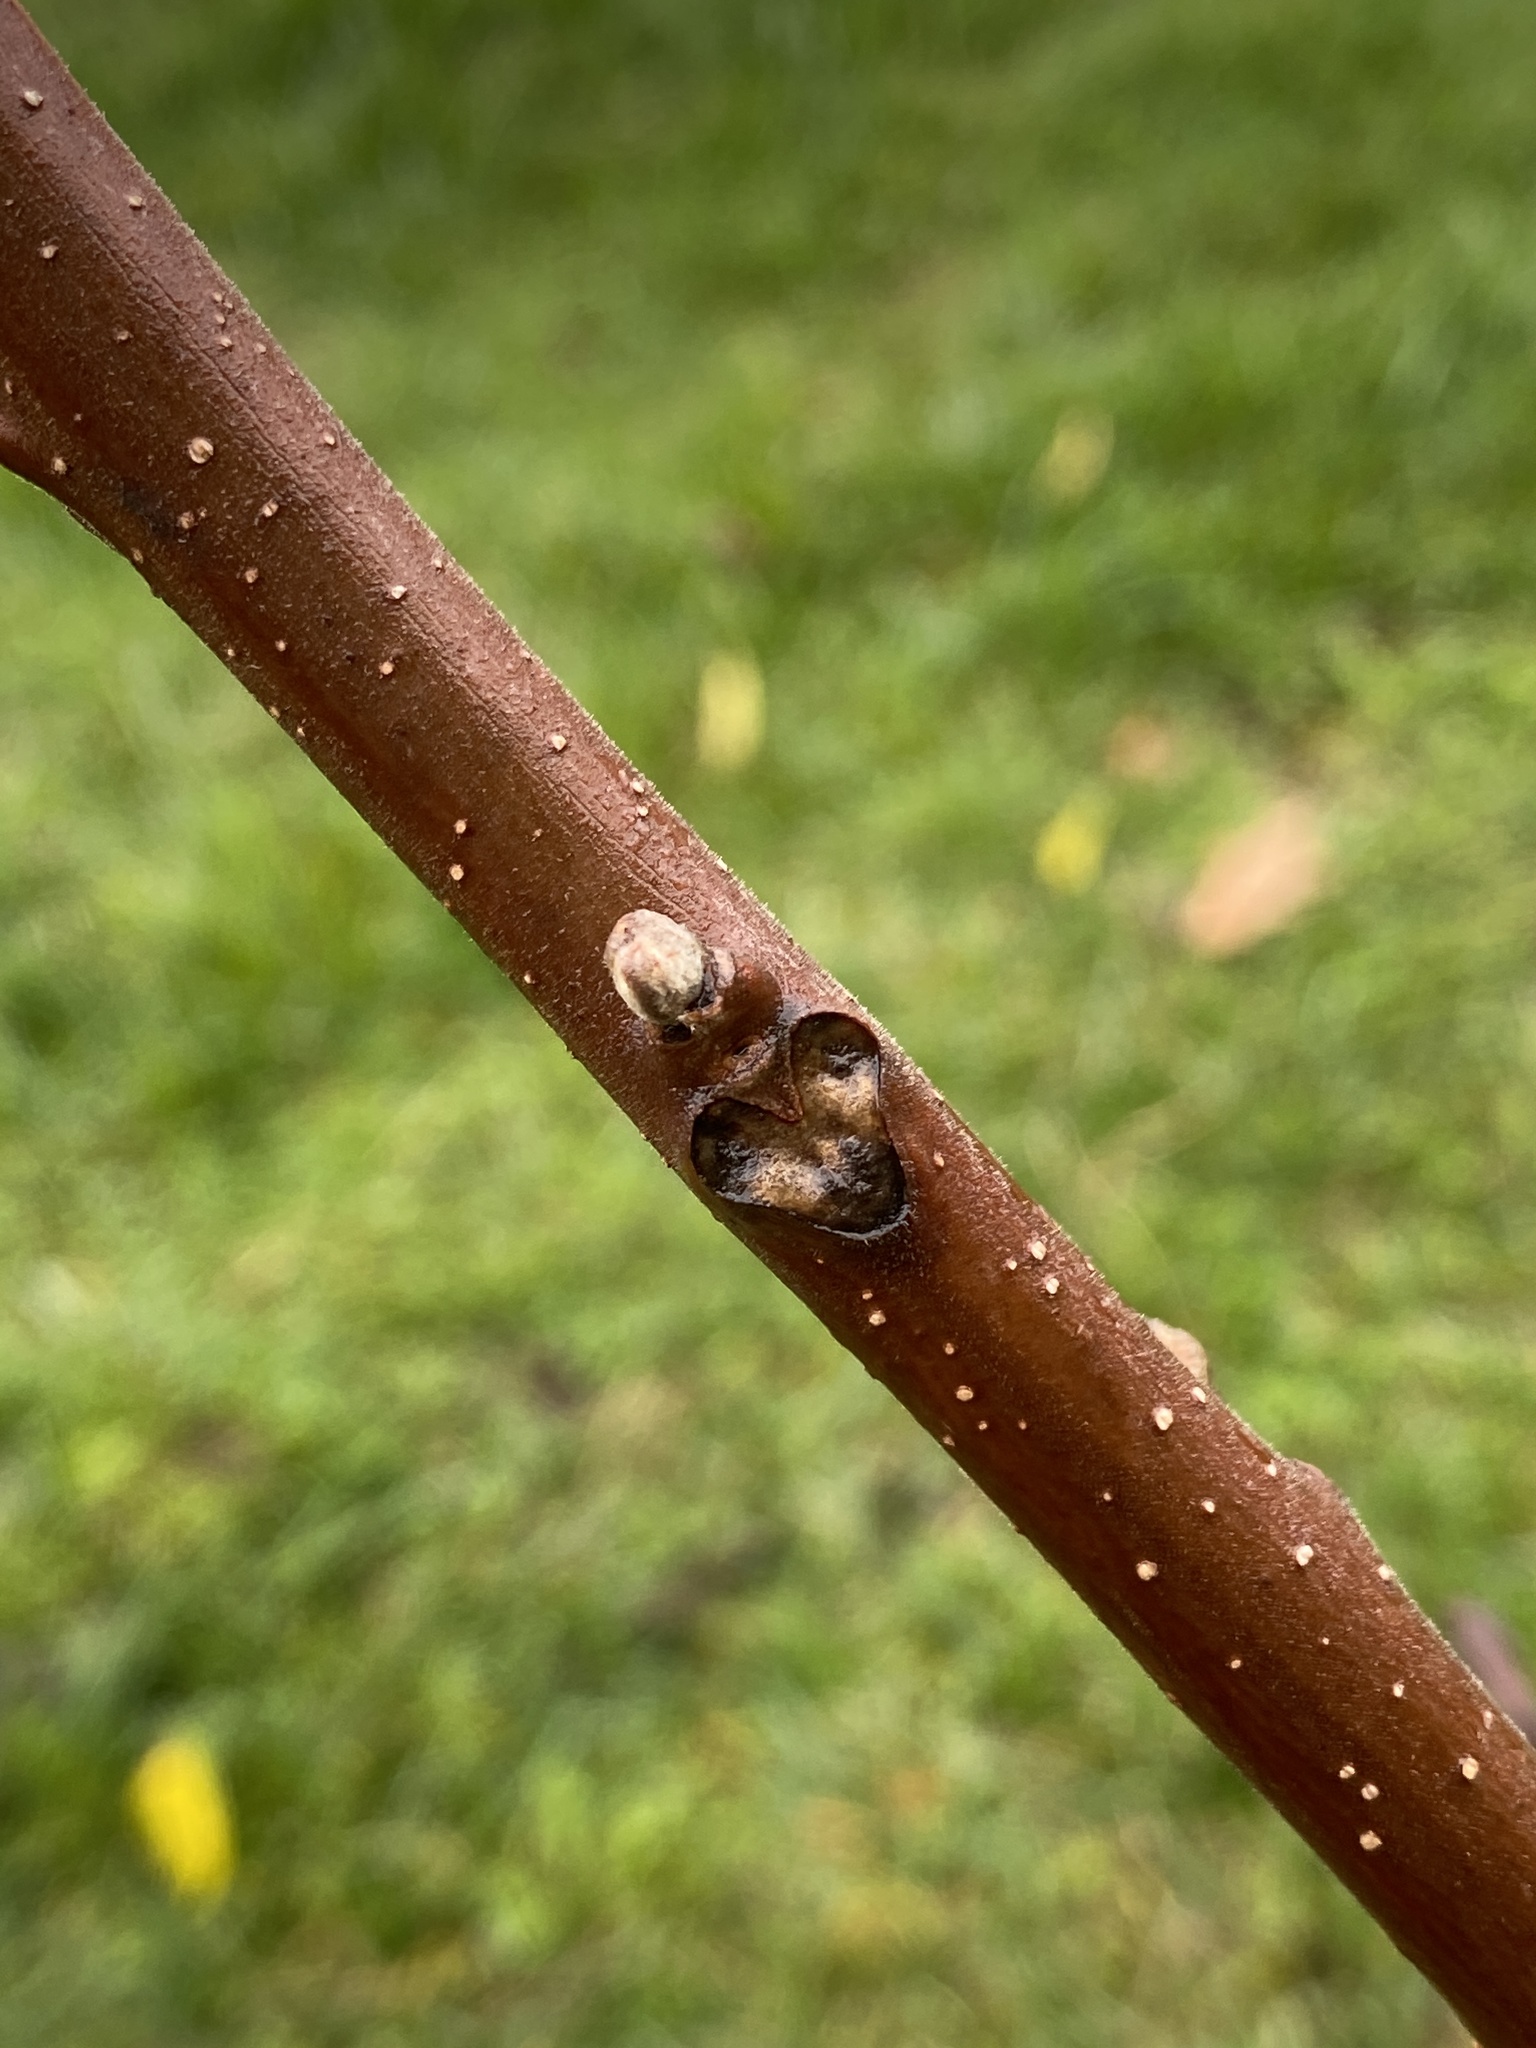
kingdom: Plantae
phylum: Tracheophyta
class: Magnoliopsida
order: Fagales
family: Juglandaceae
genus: Juglans
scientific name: Juglans nigra
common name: Black walnut
